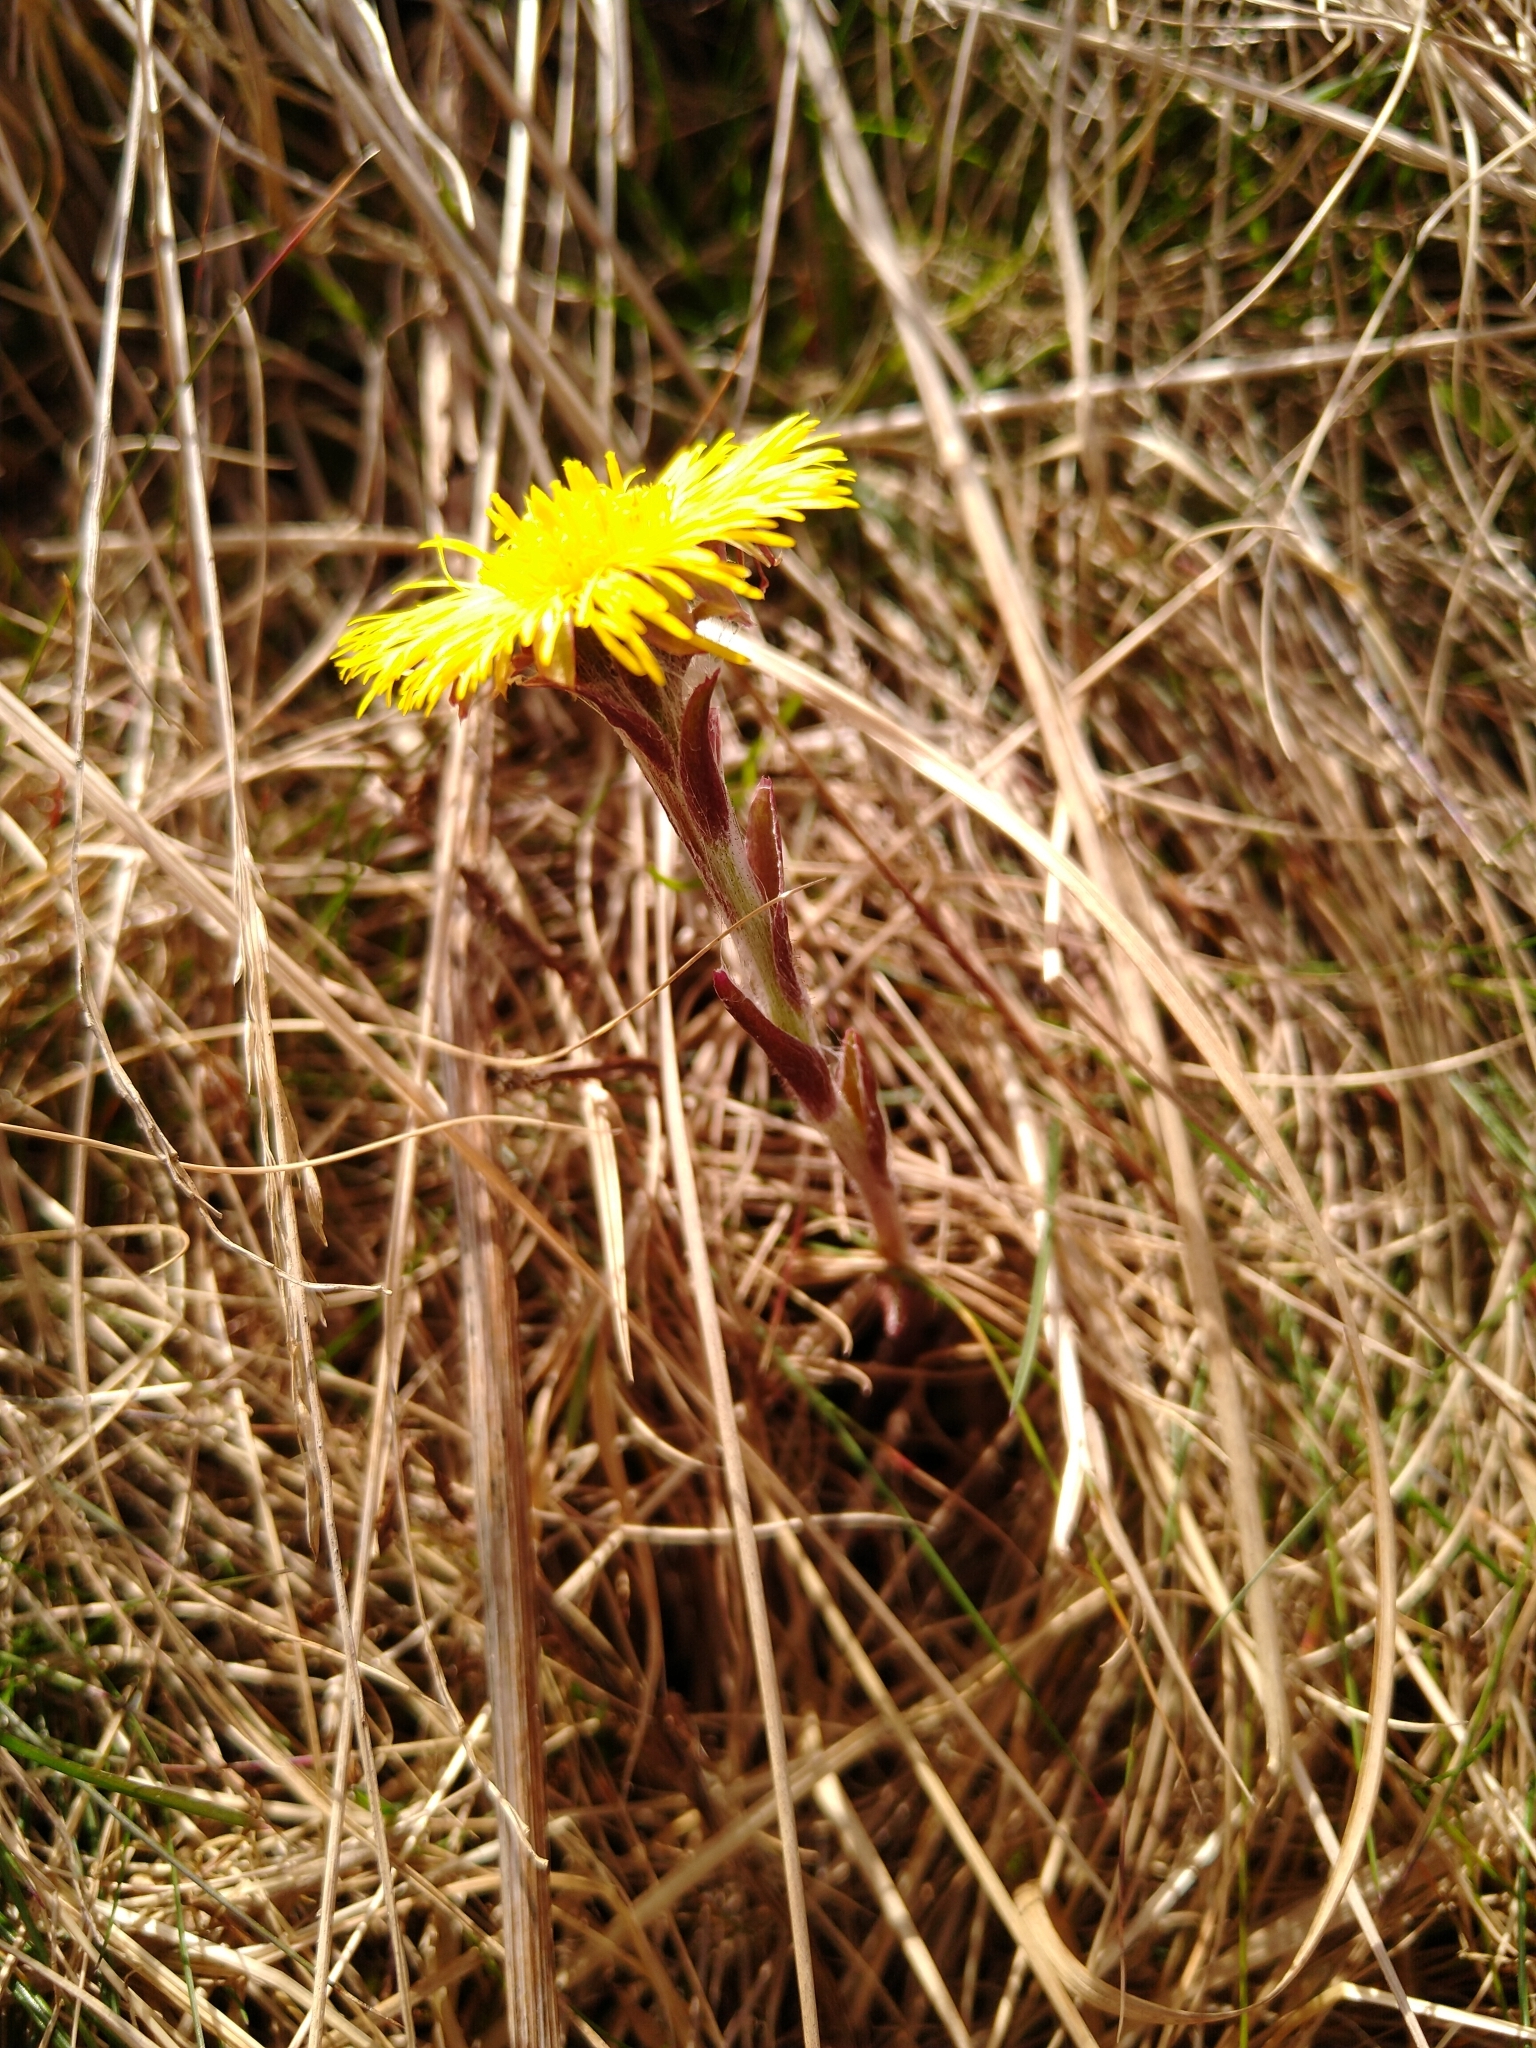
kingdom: Plantae
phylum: Tracheophyta
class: Magnoliopsida
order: Asterales
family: Asteraceae
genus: Tussilago
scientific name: Tussilago farfara
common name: Coltsfoot
